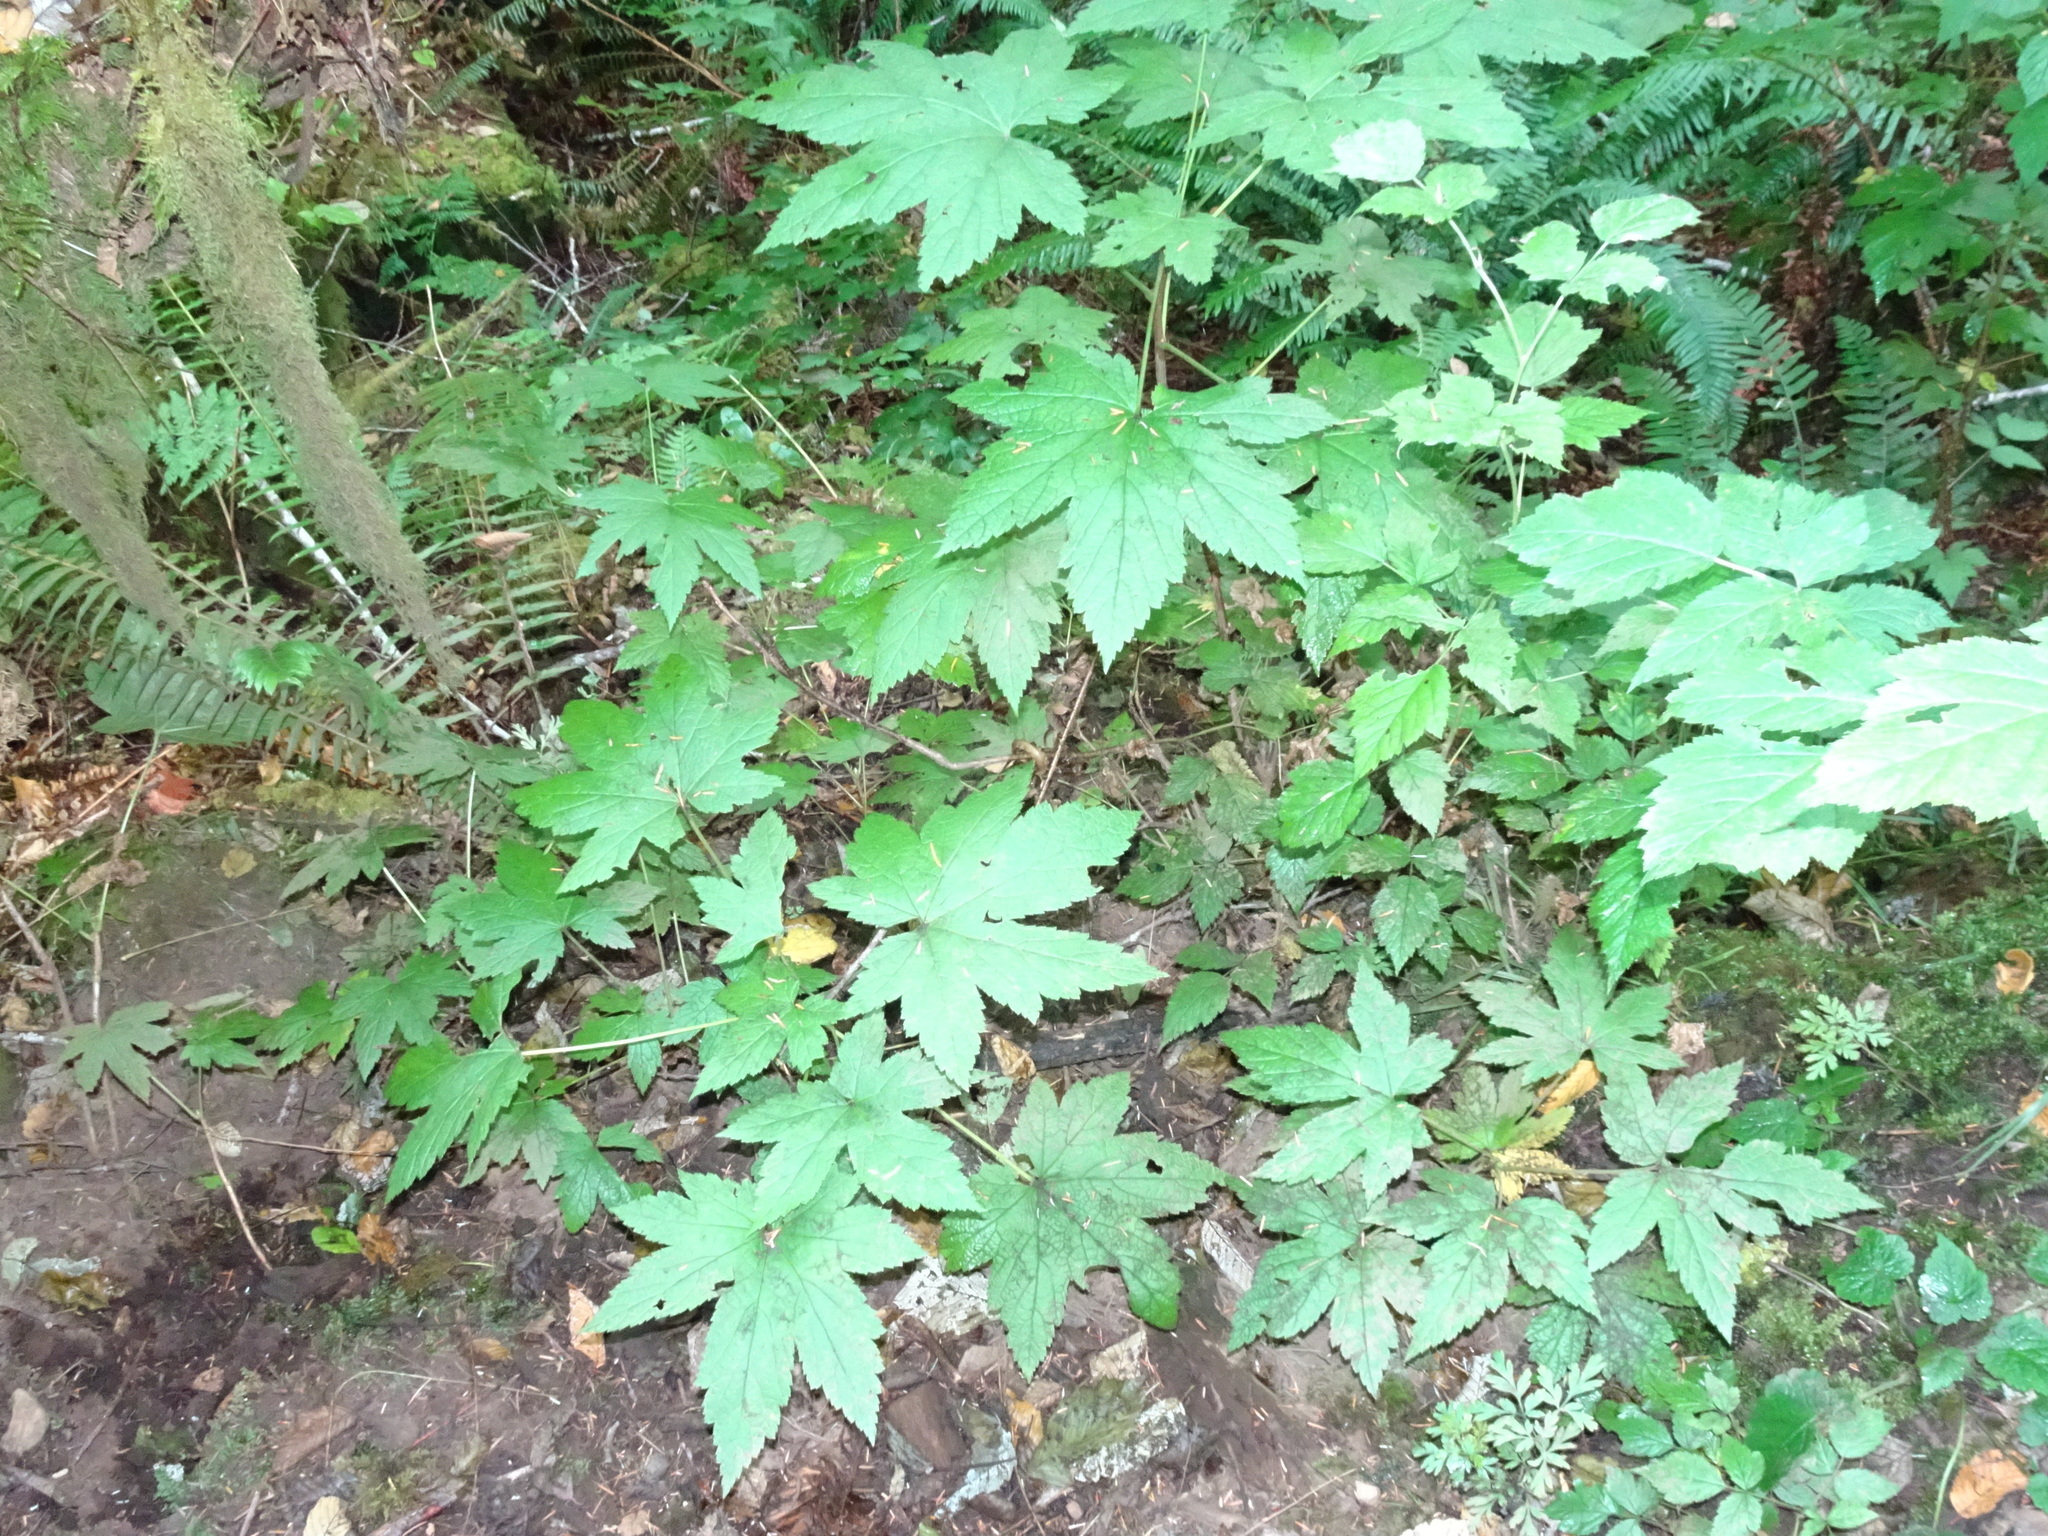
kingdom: Plantae
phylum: Tracheophyta
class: Magnoliopsida
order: Saxifragales
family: Grossulariaceae
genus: Ribes
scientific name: Ribes bracteosum
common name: California black currant
